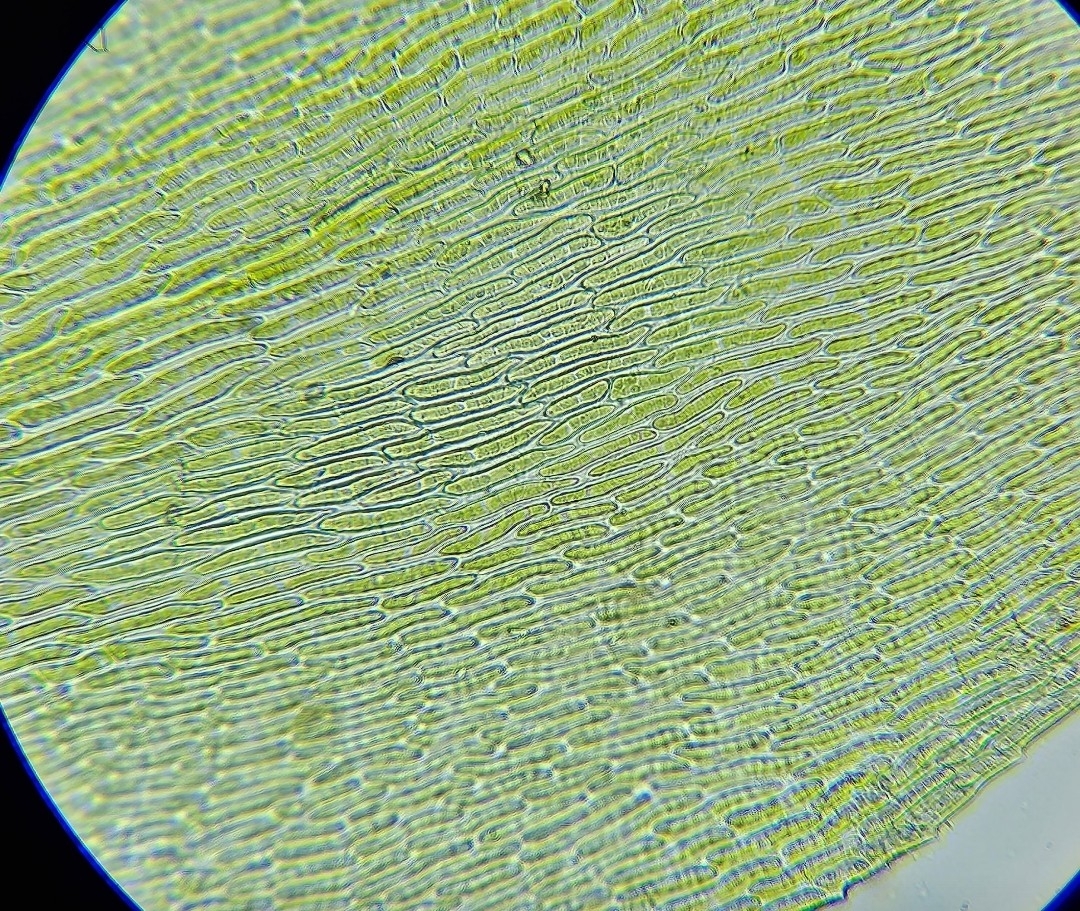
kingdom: Plantae
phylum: Bryophyta
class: Bryopsida
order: Hypnales
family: Lembophyllaceae
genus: Pseudisothecium
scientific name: Pseudisothecium myosuroides
